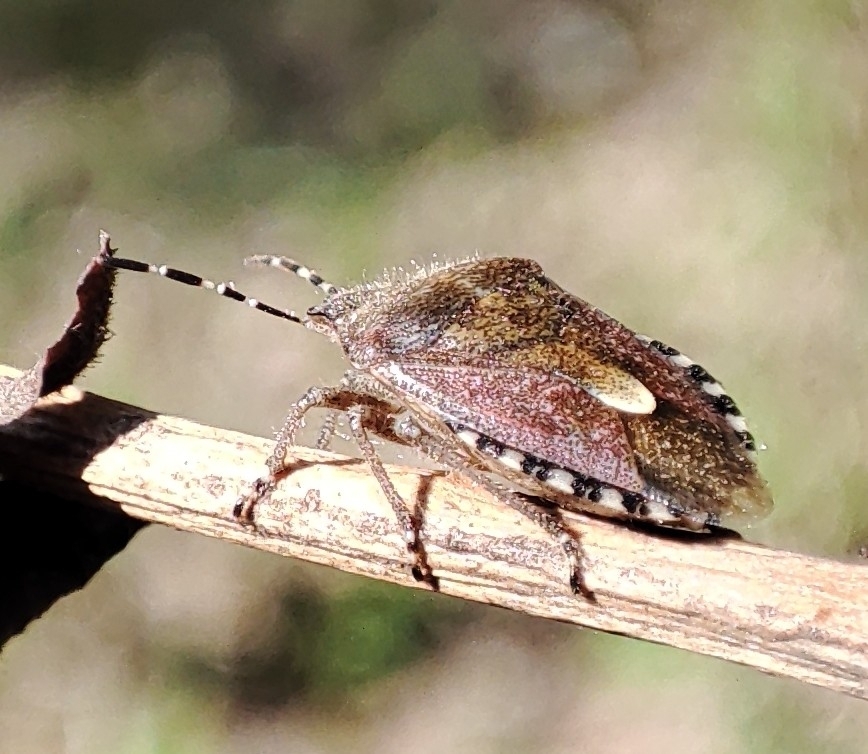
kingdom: Animalia
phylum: Arthropoda
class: Insecta
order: Hemiptera
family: Pentatomidae
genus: Dolycoris
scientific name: Dolycoris baccarum
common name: Sloe bug
